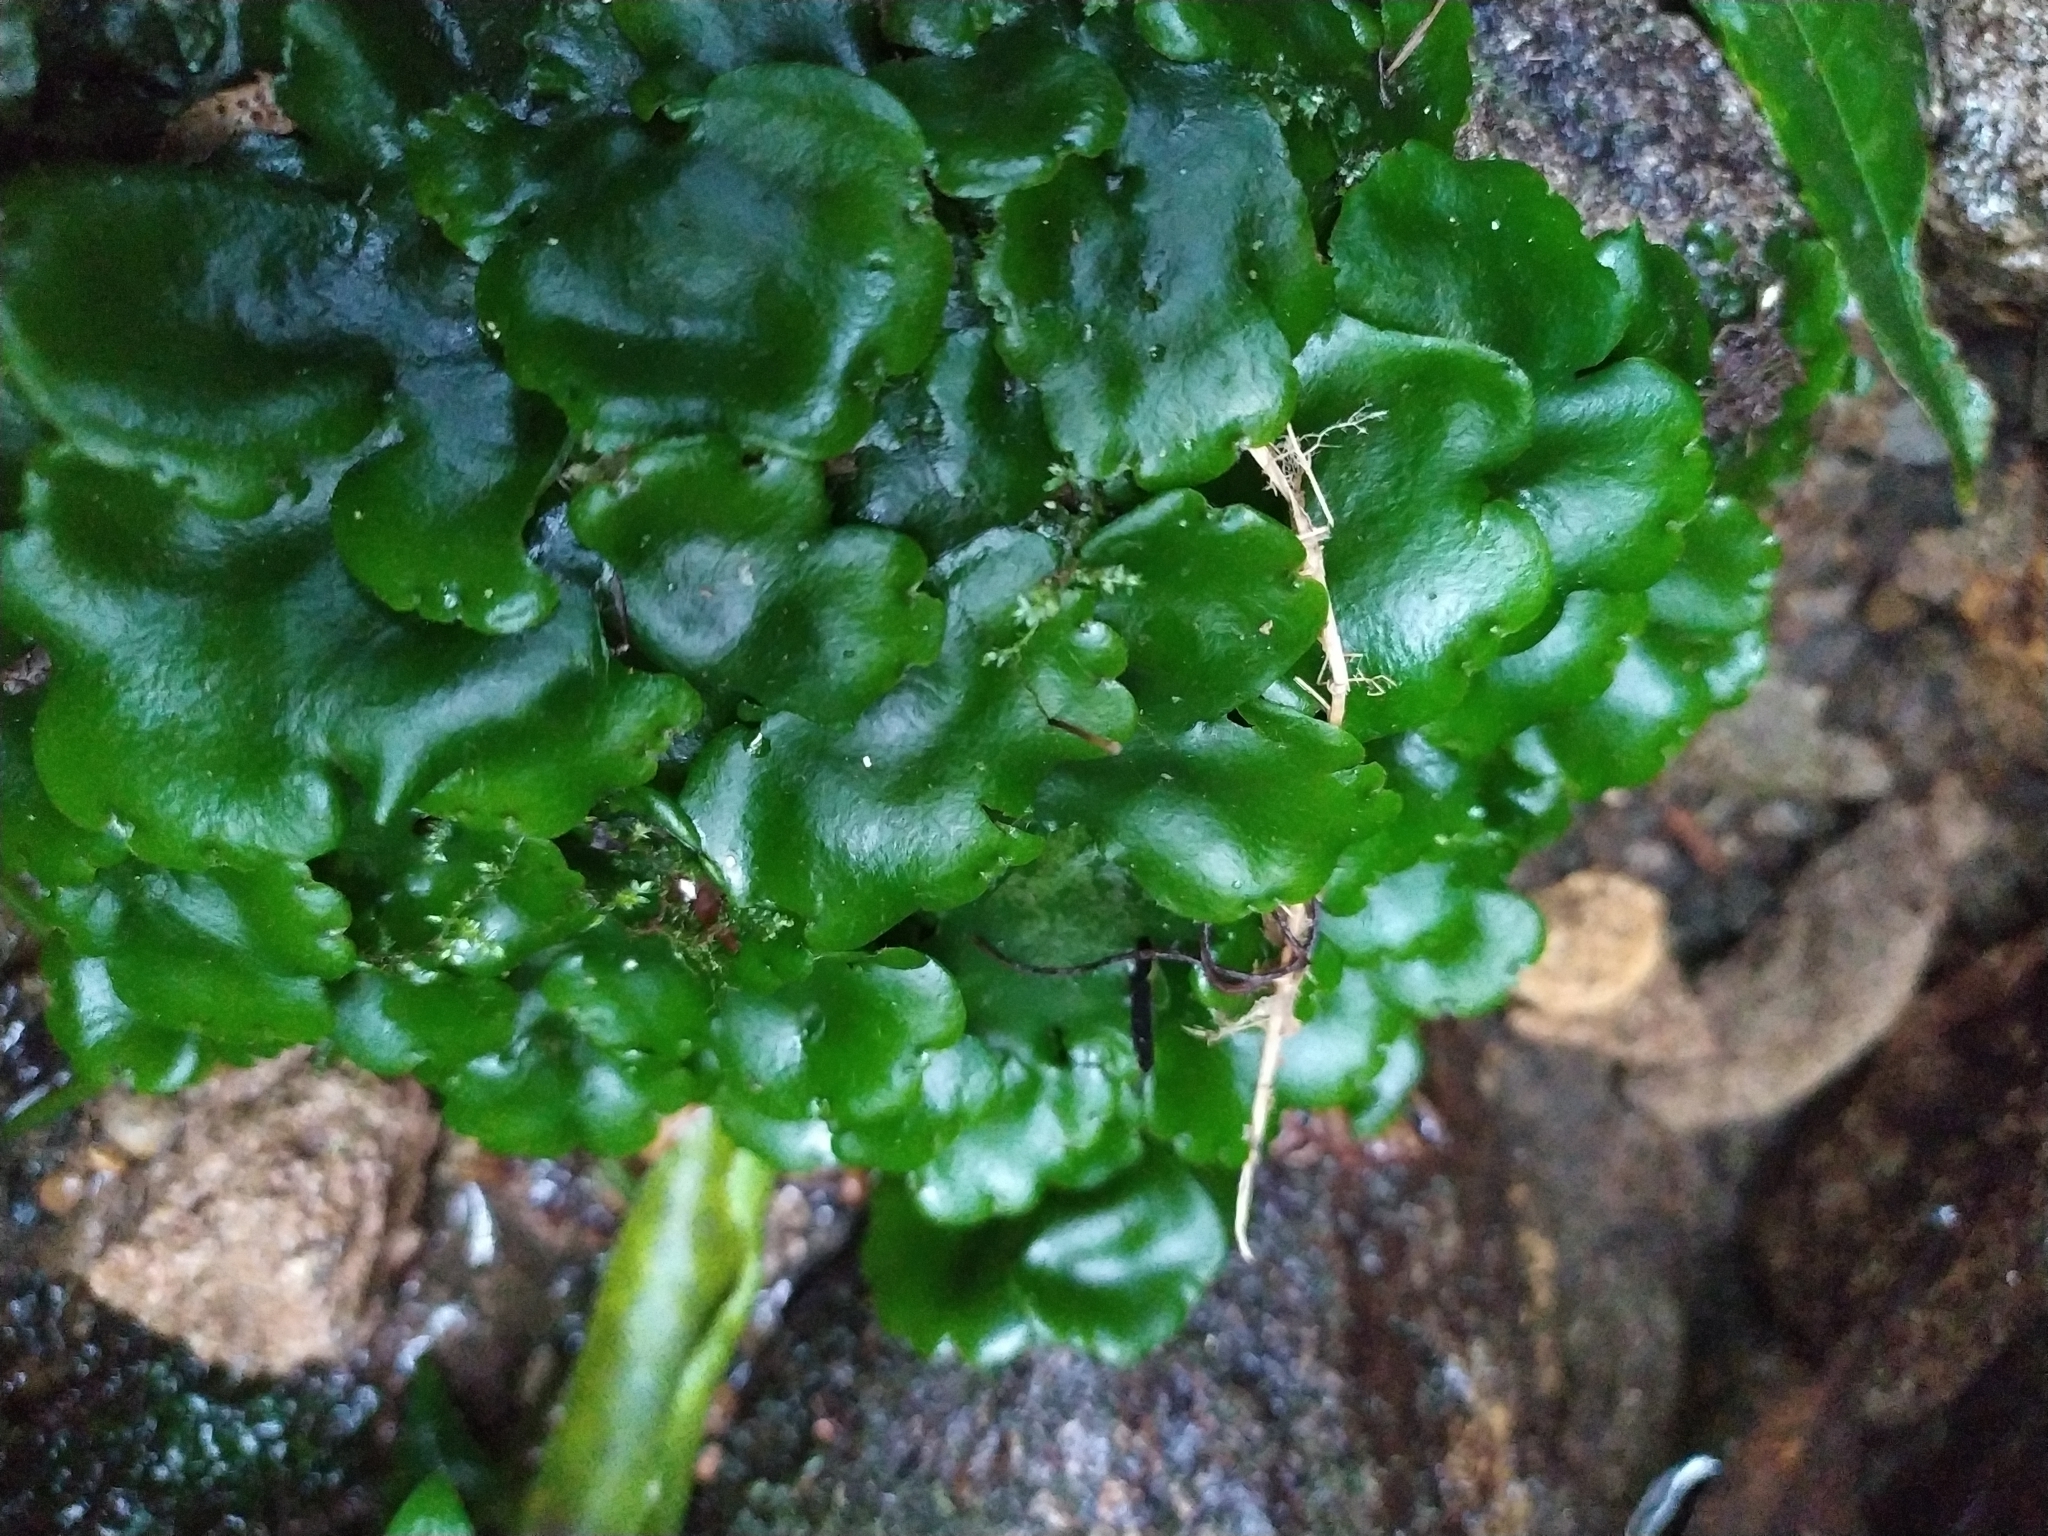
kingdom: Plantae
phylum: Marchantiophyta
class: Marchantiopsida
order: Marchantiales
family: Monocleaceae
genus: Monoclea
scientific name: Monoclea forsteri
